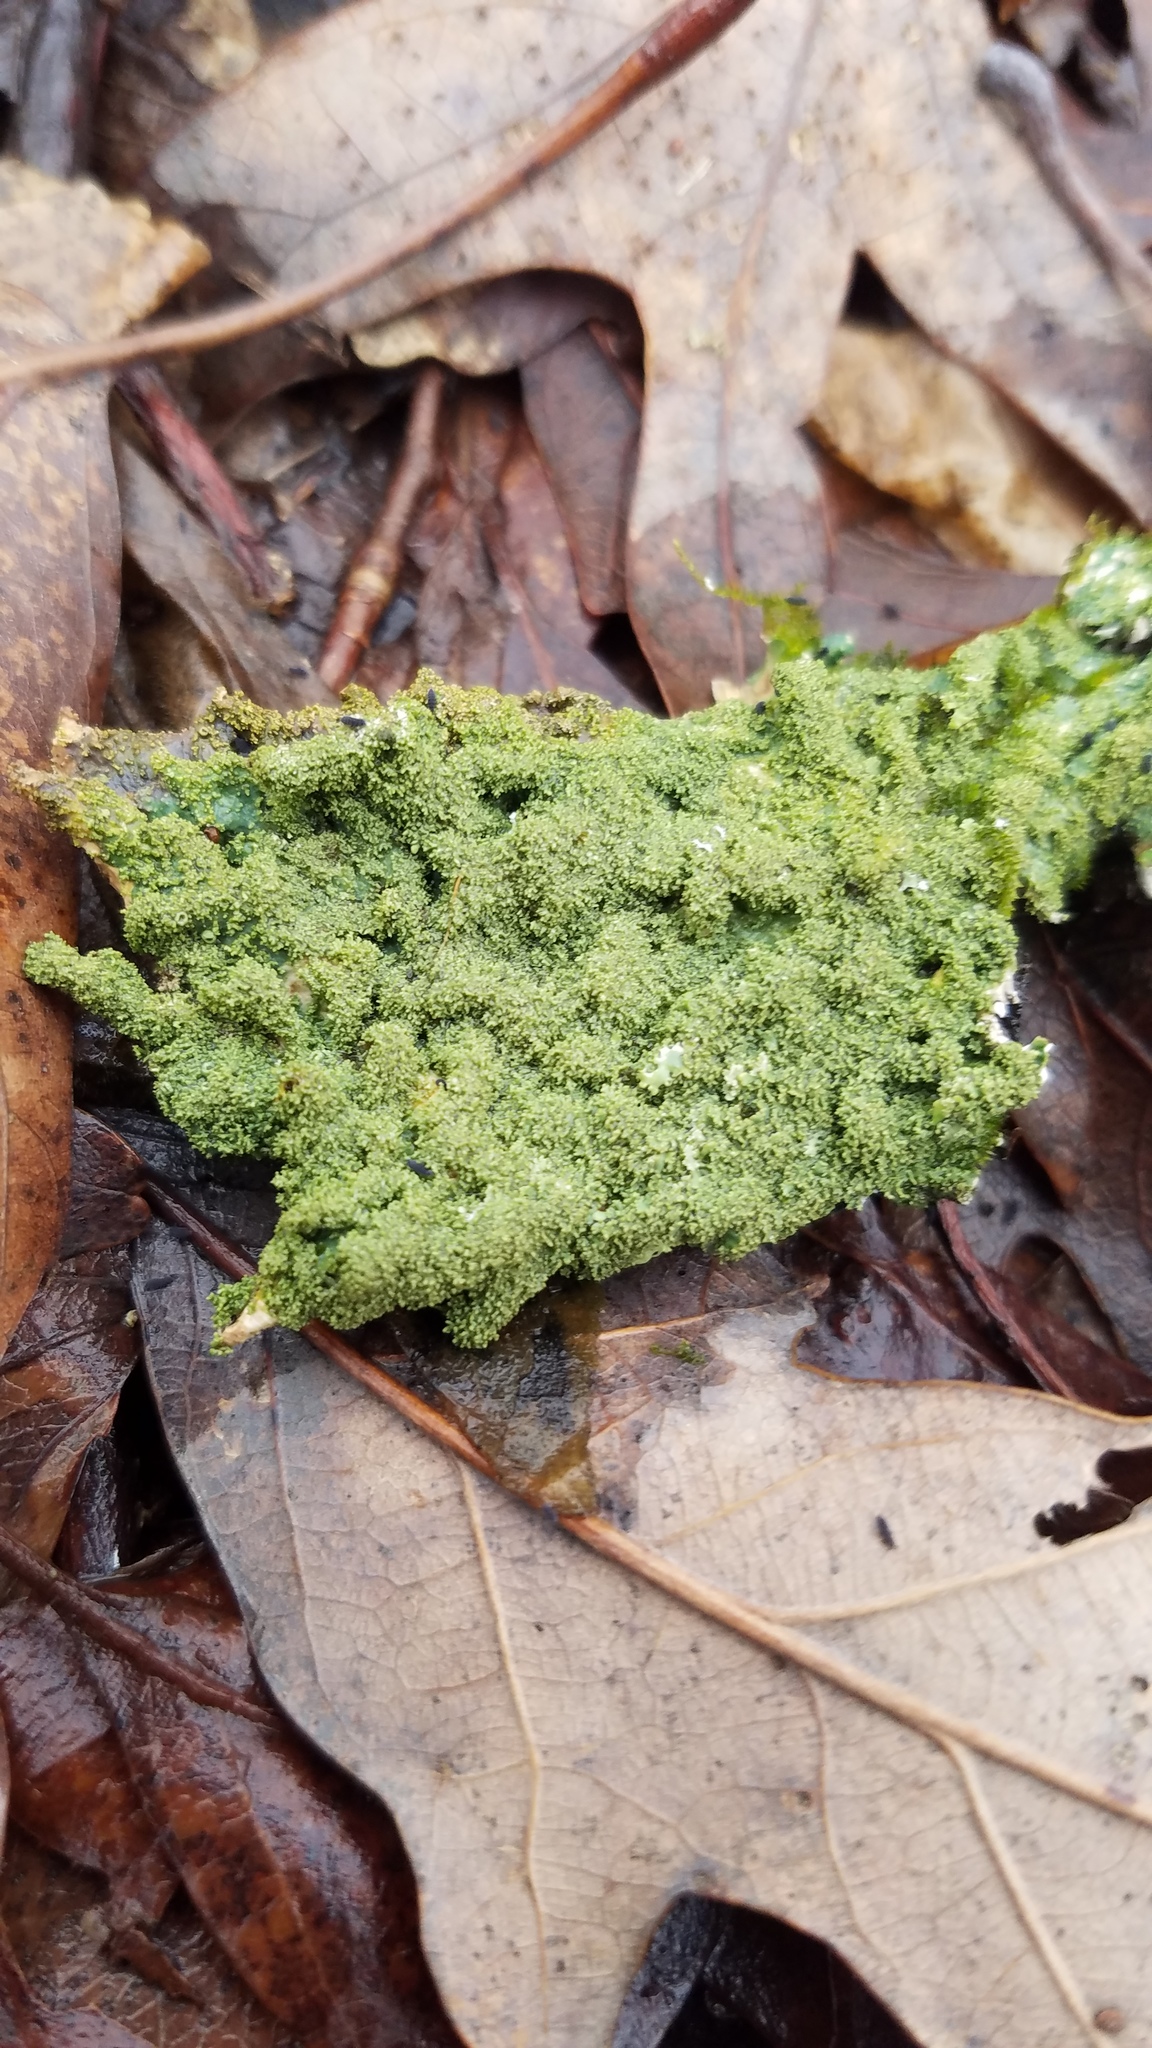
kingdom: Fungi
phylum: Ascomycota
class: Lecanoromycetes
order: Lecanorales
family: Parmeliaceae
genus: Punctelia
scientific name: Punctelia rudecta
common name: Rough speckled shield lichen
